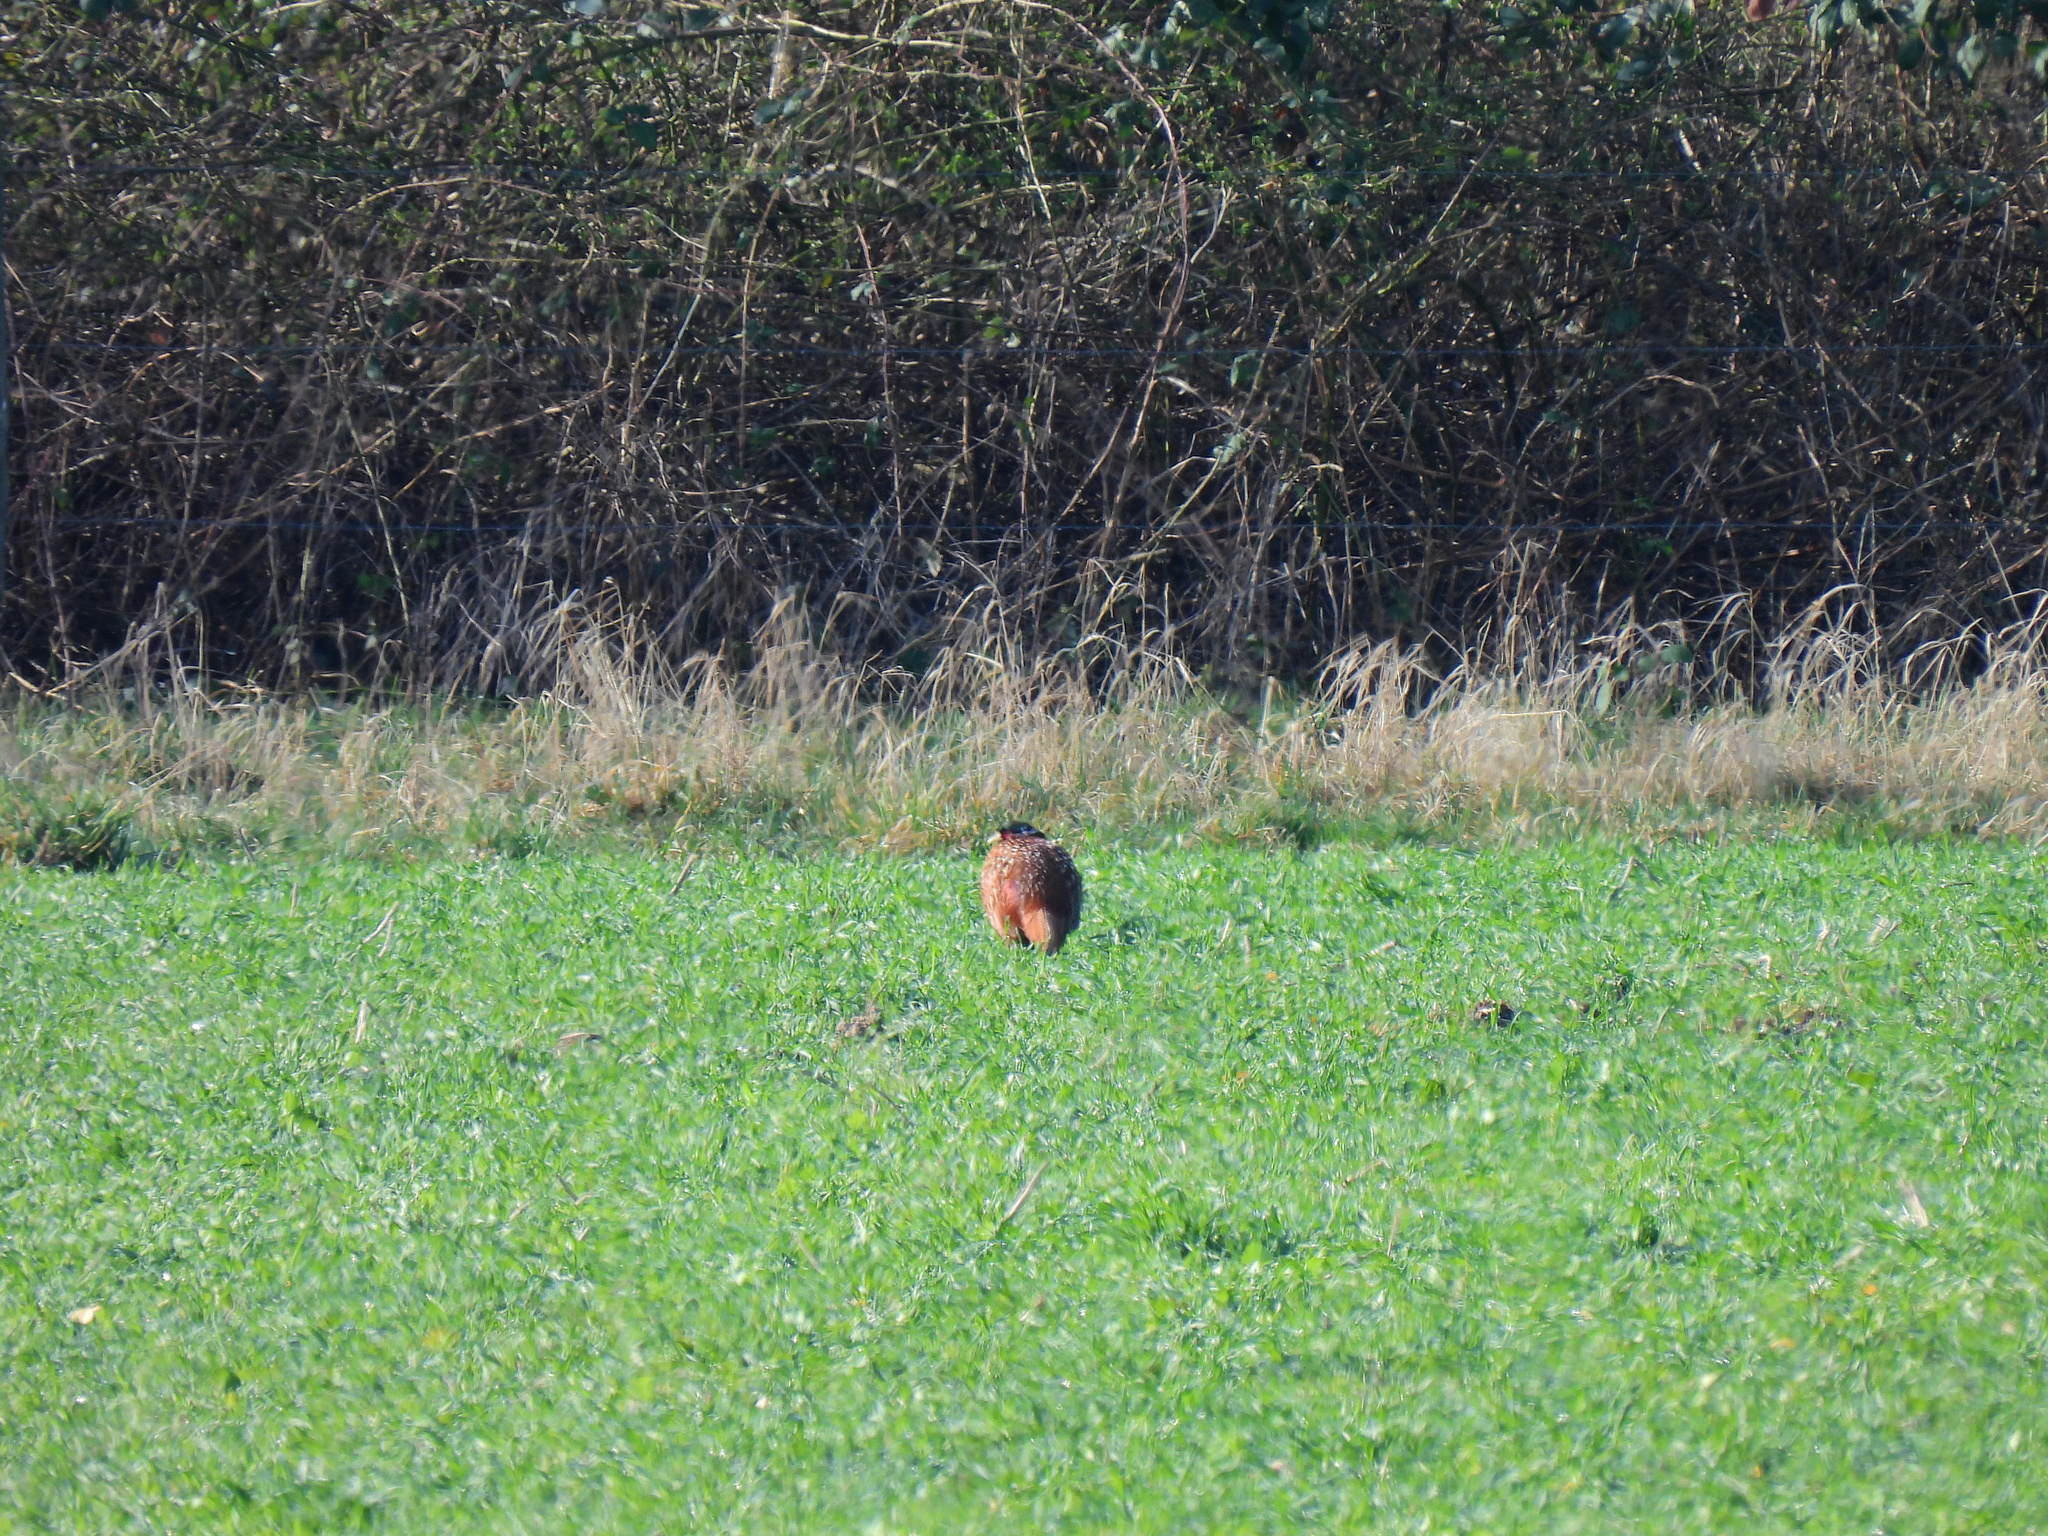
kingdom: Animalia
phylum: Chordata
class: Aves
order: Galliformes
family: Phasianidae
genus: Phasianus
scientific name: Phasianus colchicus
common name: Common pheasant
